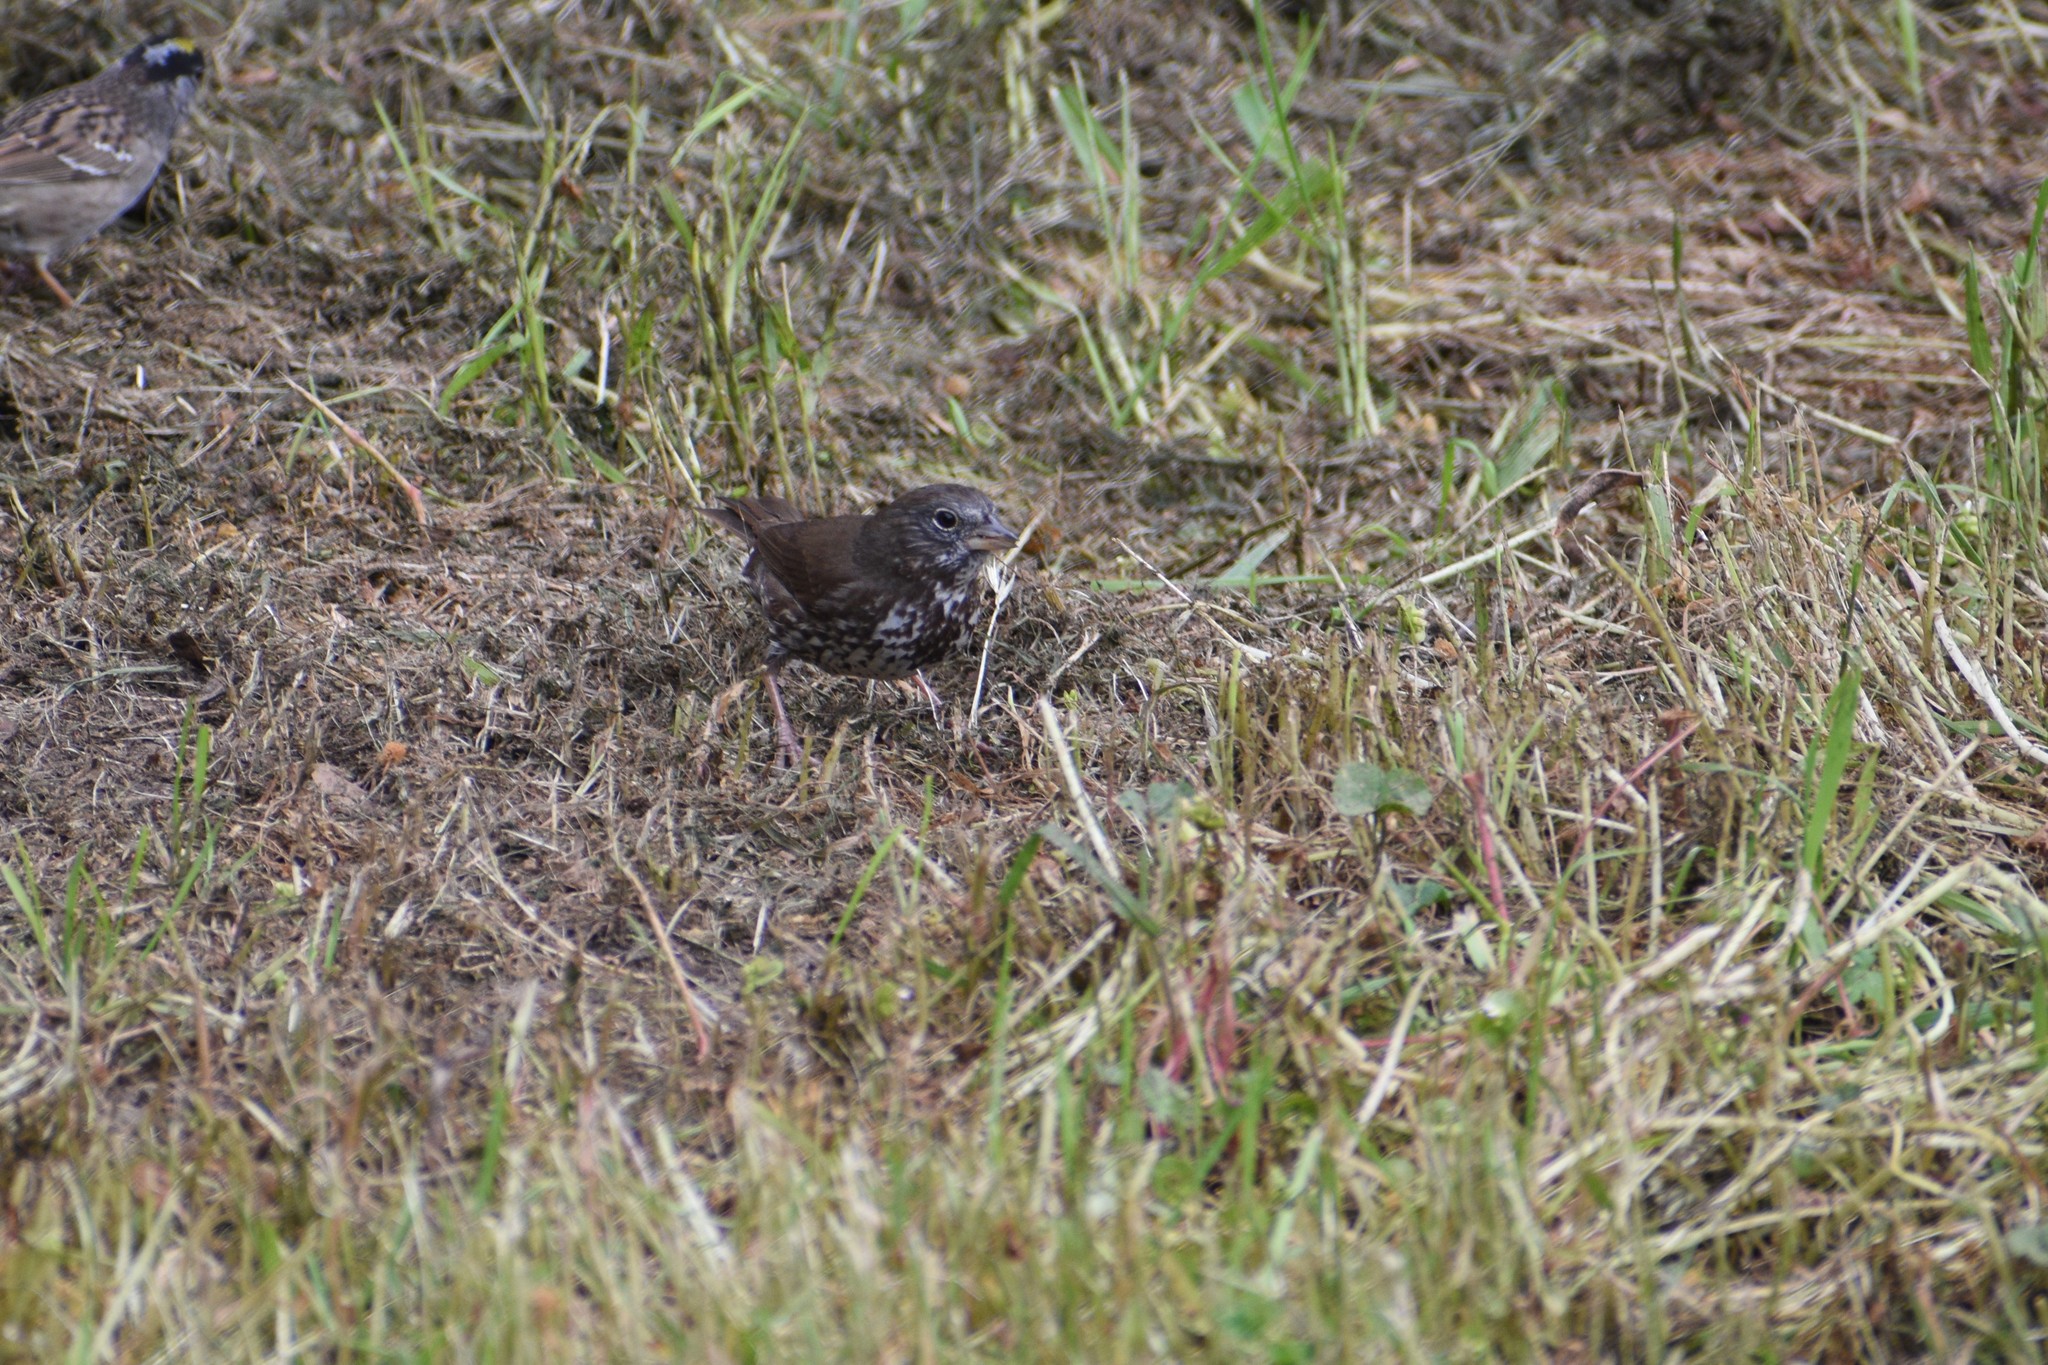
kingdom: Animalia
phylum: Chordata
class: Aves
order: Passeriformes
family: Passerellidae
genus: Passerella
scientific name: Passerella iliaca
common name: Fox sparrow
